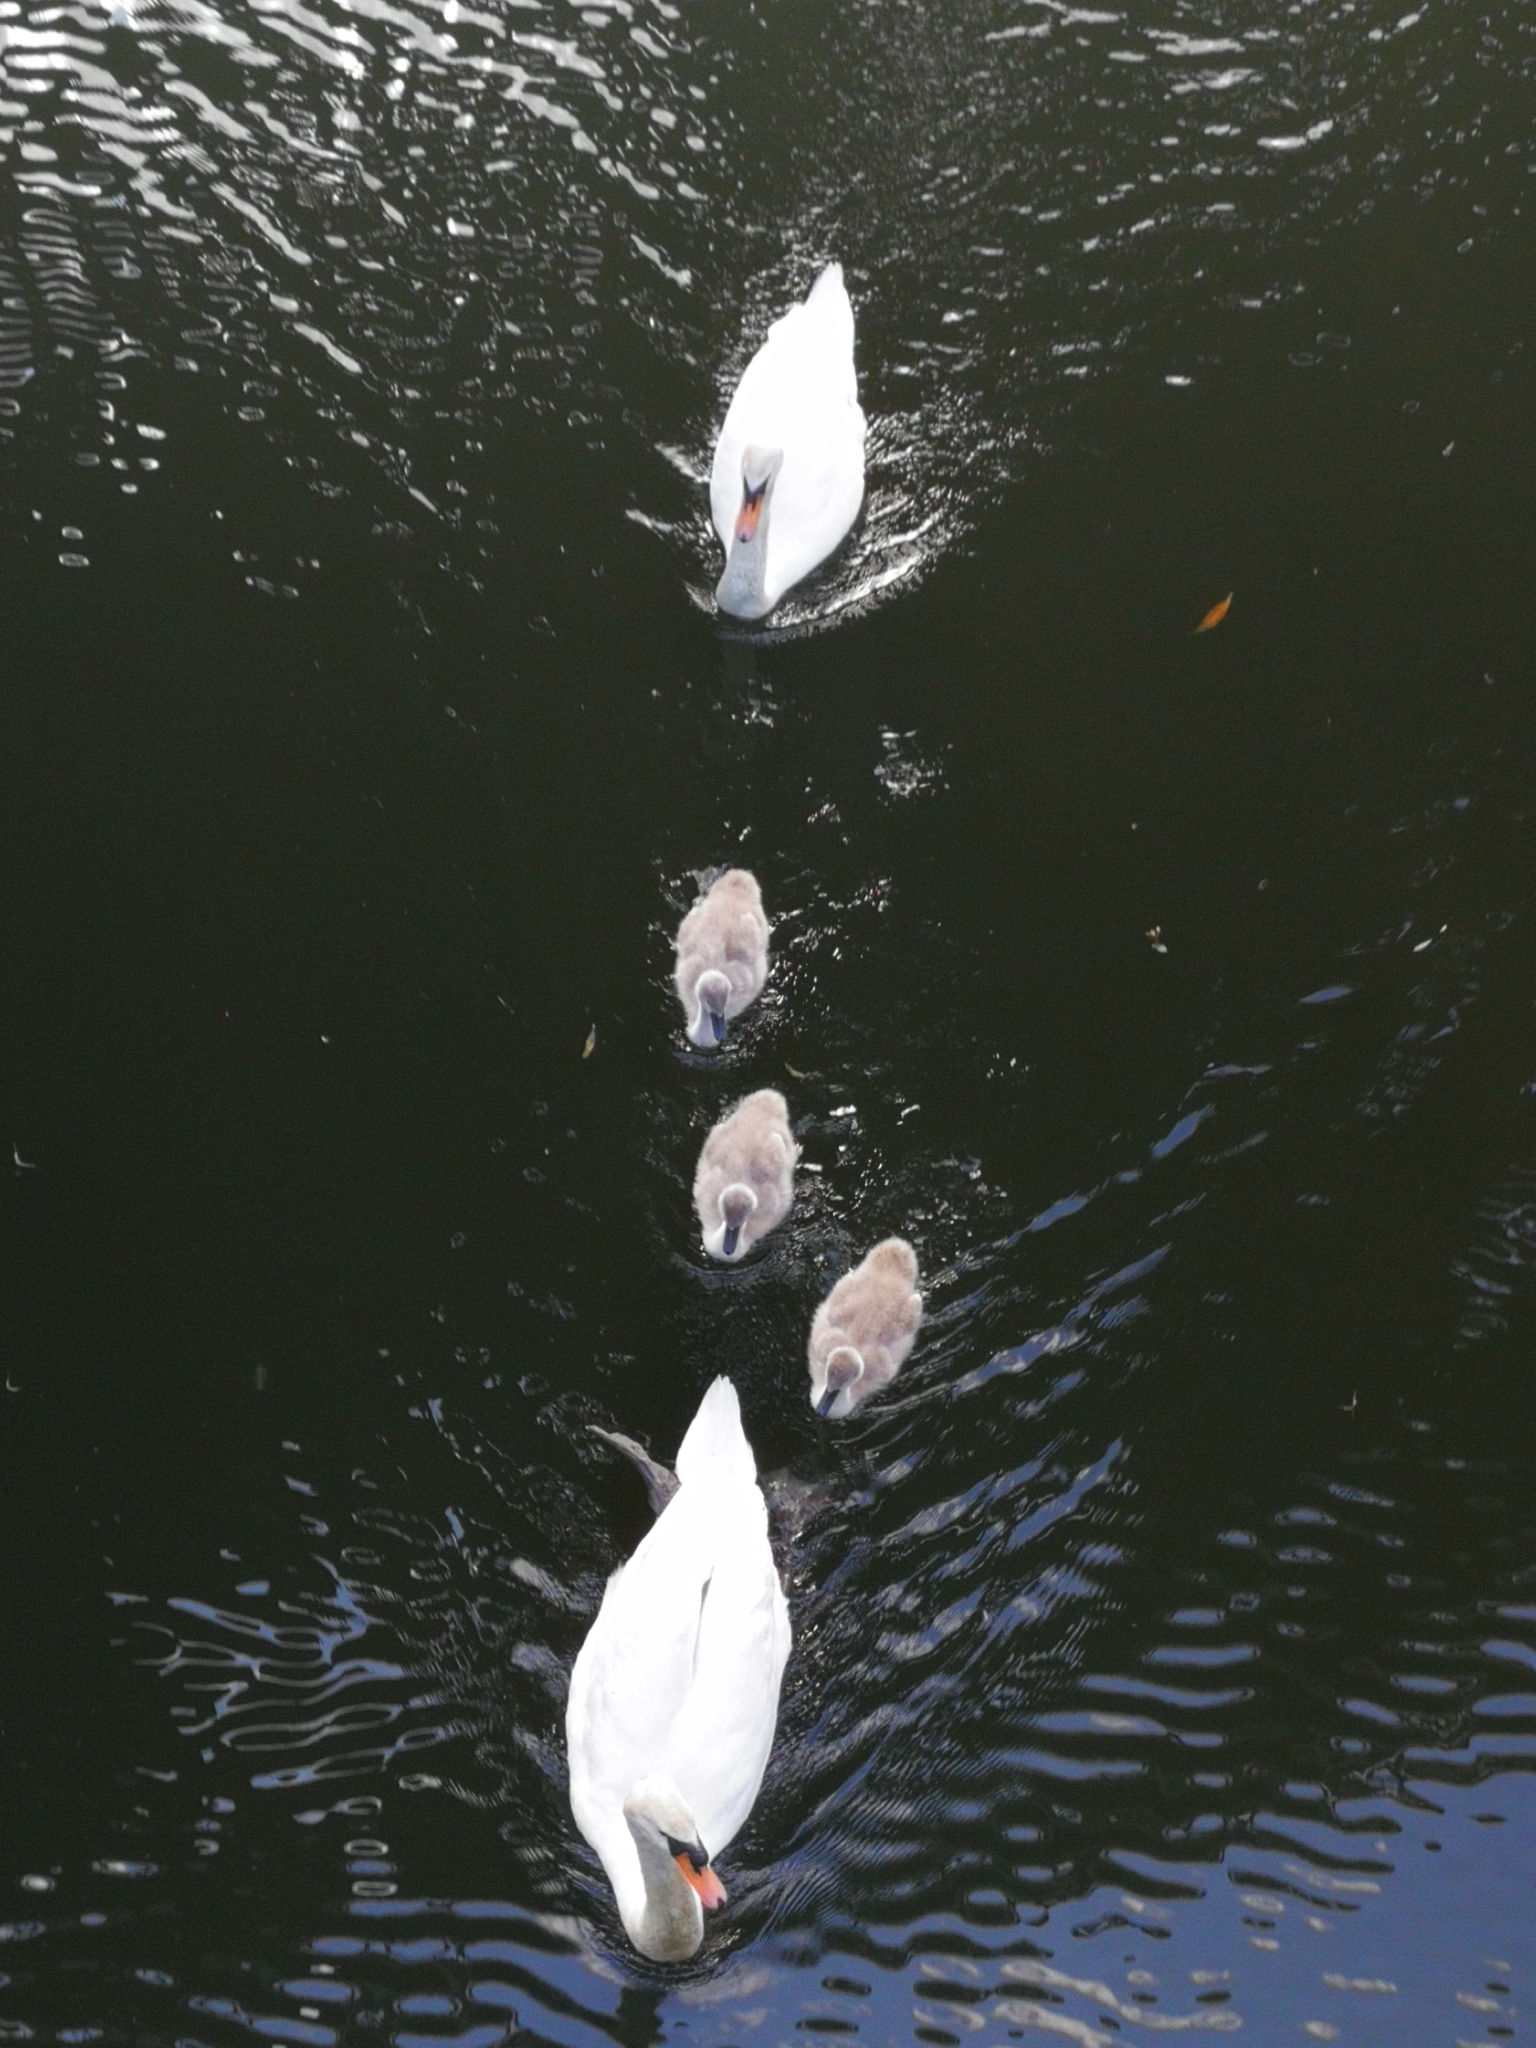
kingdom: Animalia
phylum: Chordata
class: Aves
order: Anseriformes
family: Anatidae
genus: Cygnus
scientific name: Cygnus olor
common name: Mute swan
